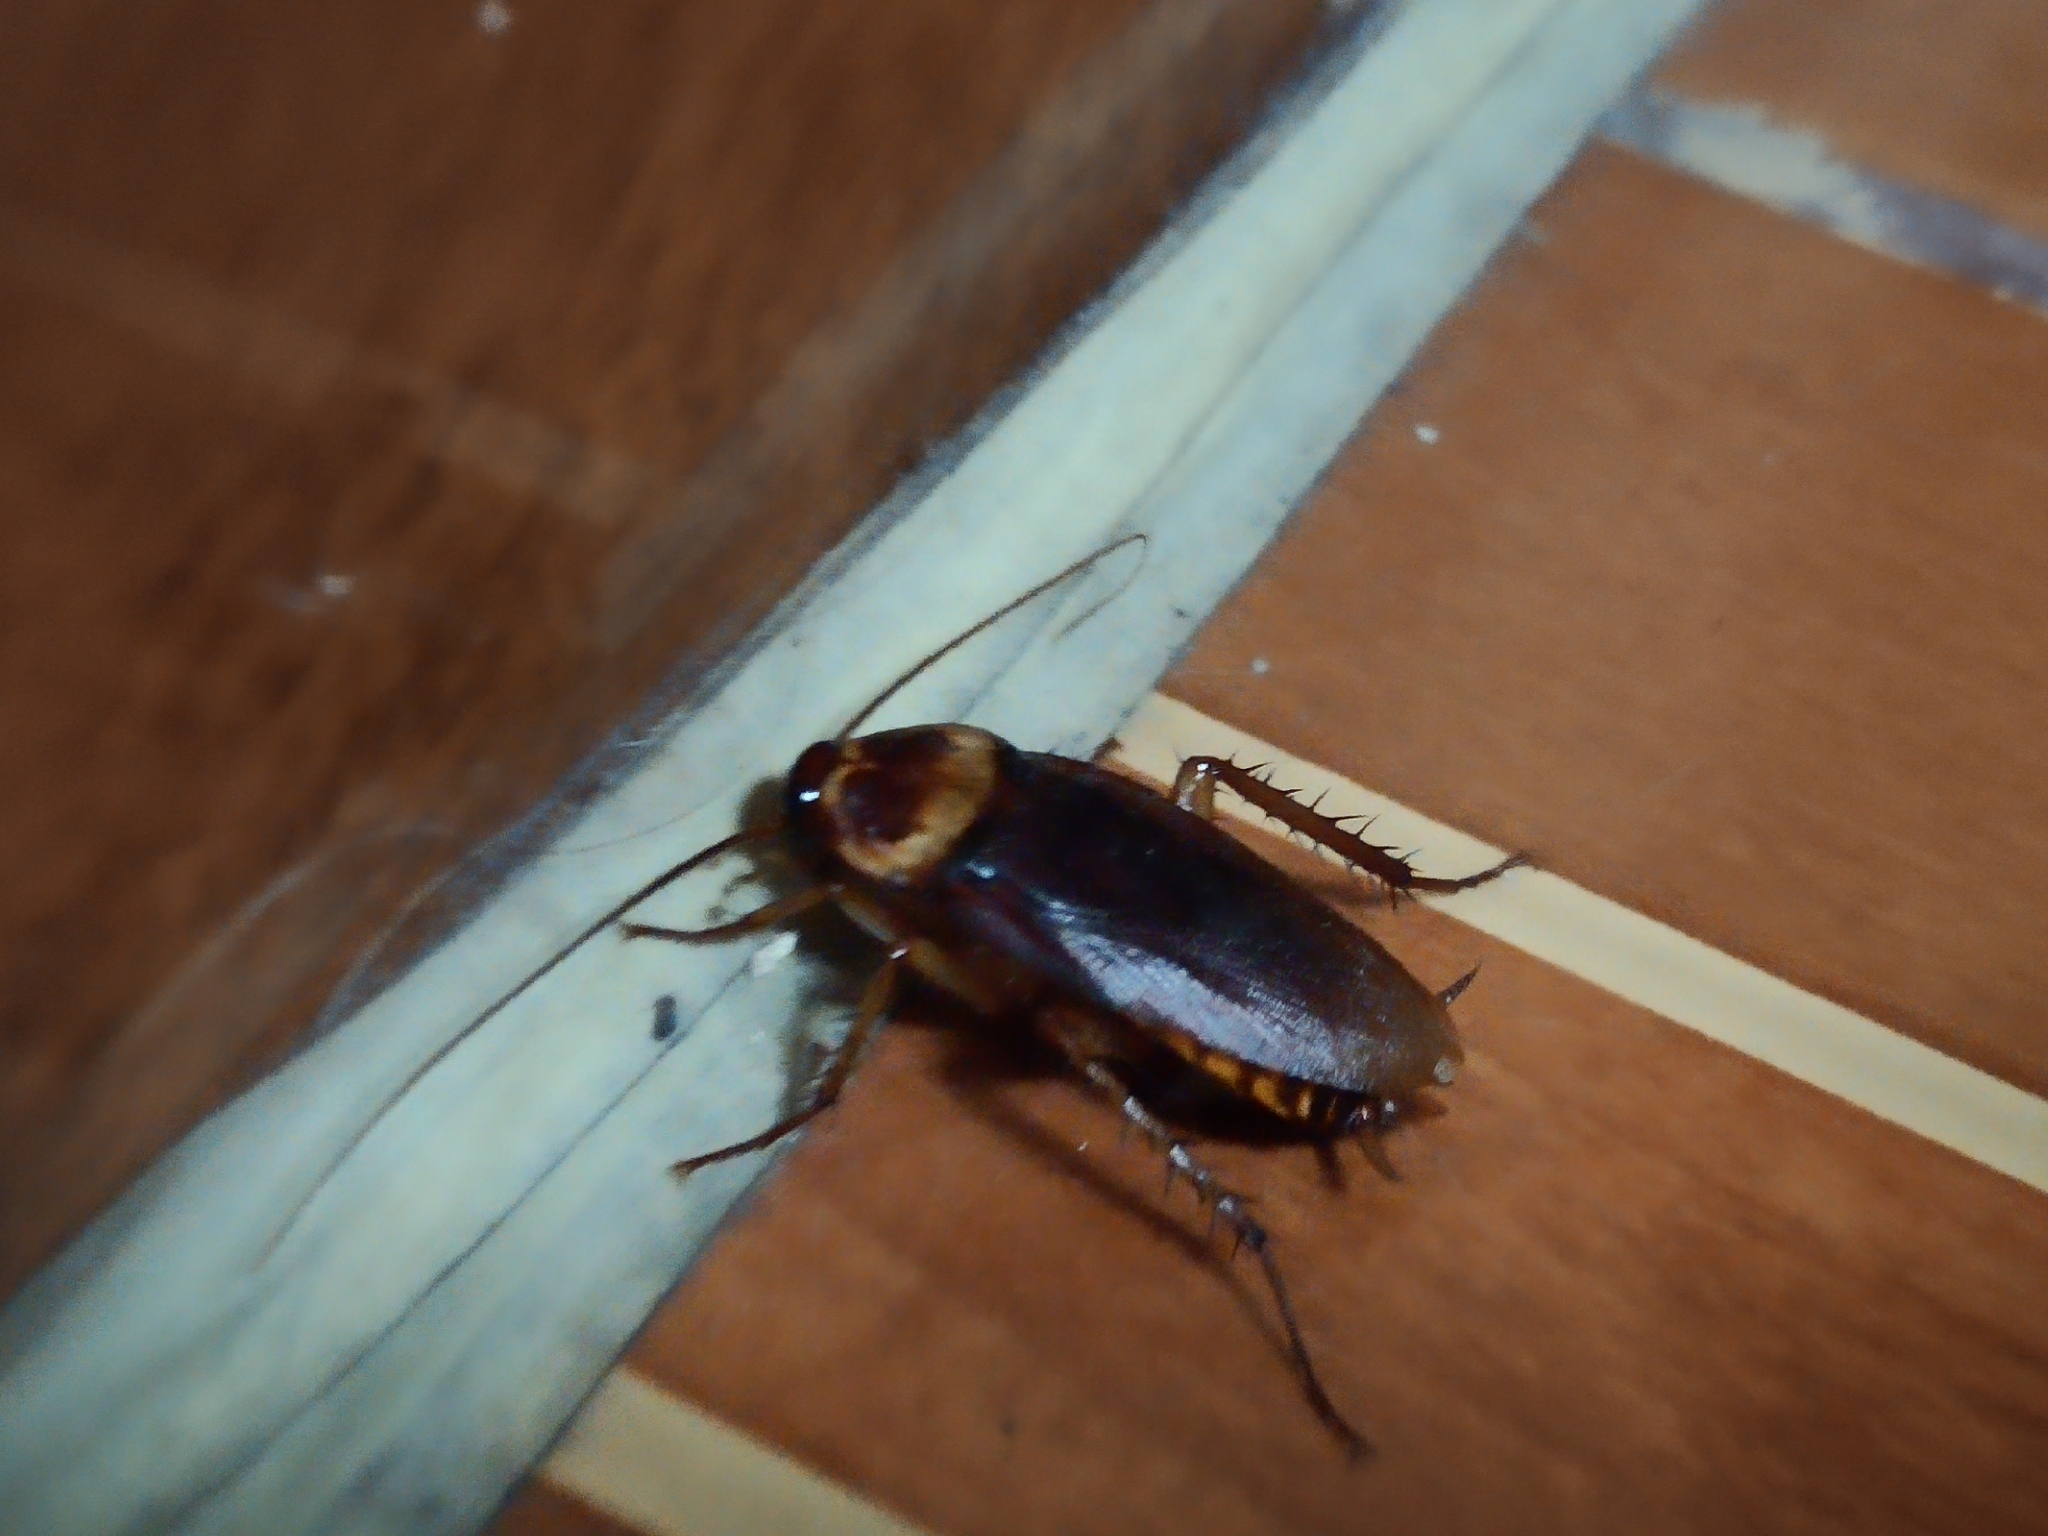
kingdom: Animalia
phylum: Arthropoda
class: Insecta
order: Blattodea
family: Blattidae
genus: Periplaneta
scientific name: Periplaneta americana
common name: American cockroach
